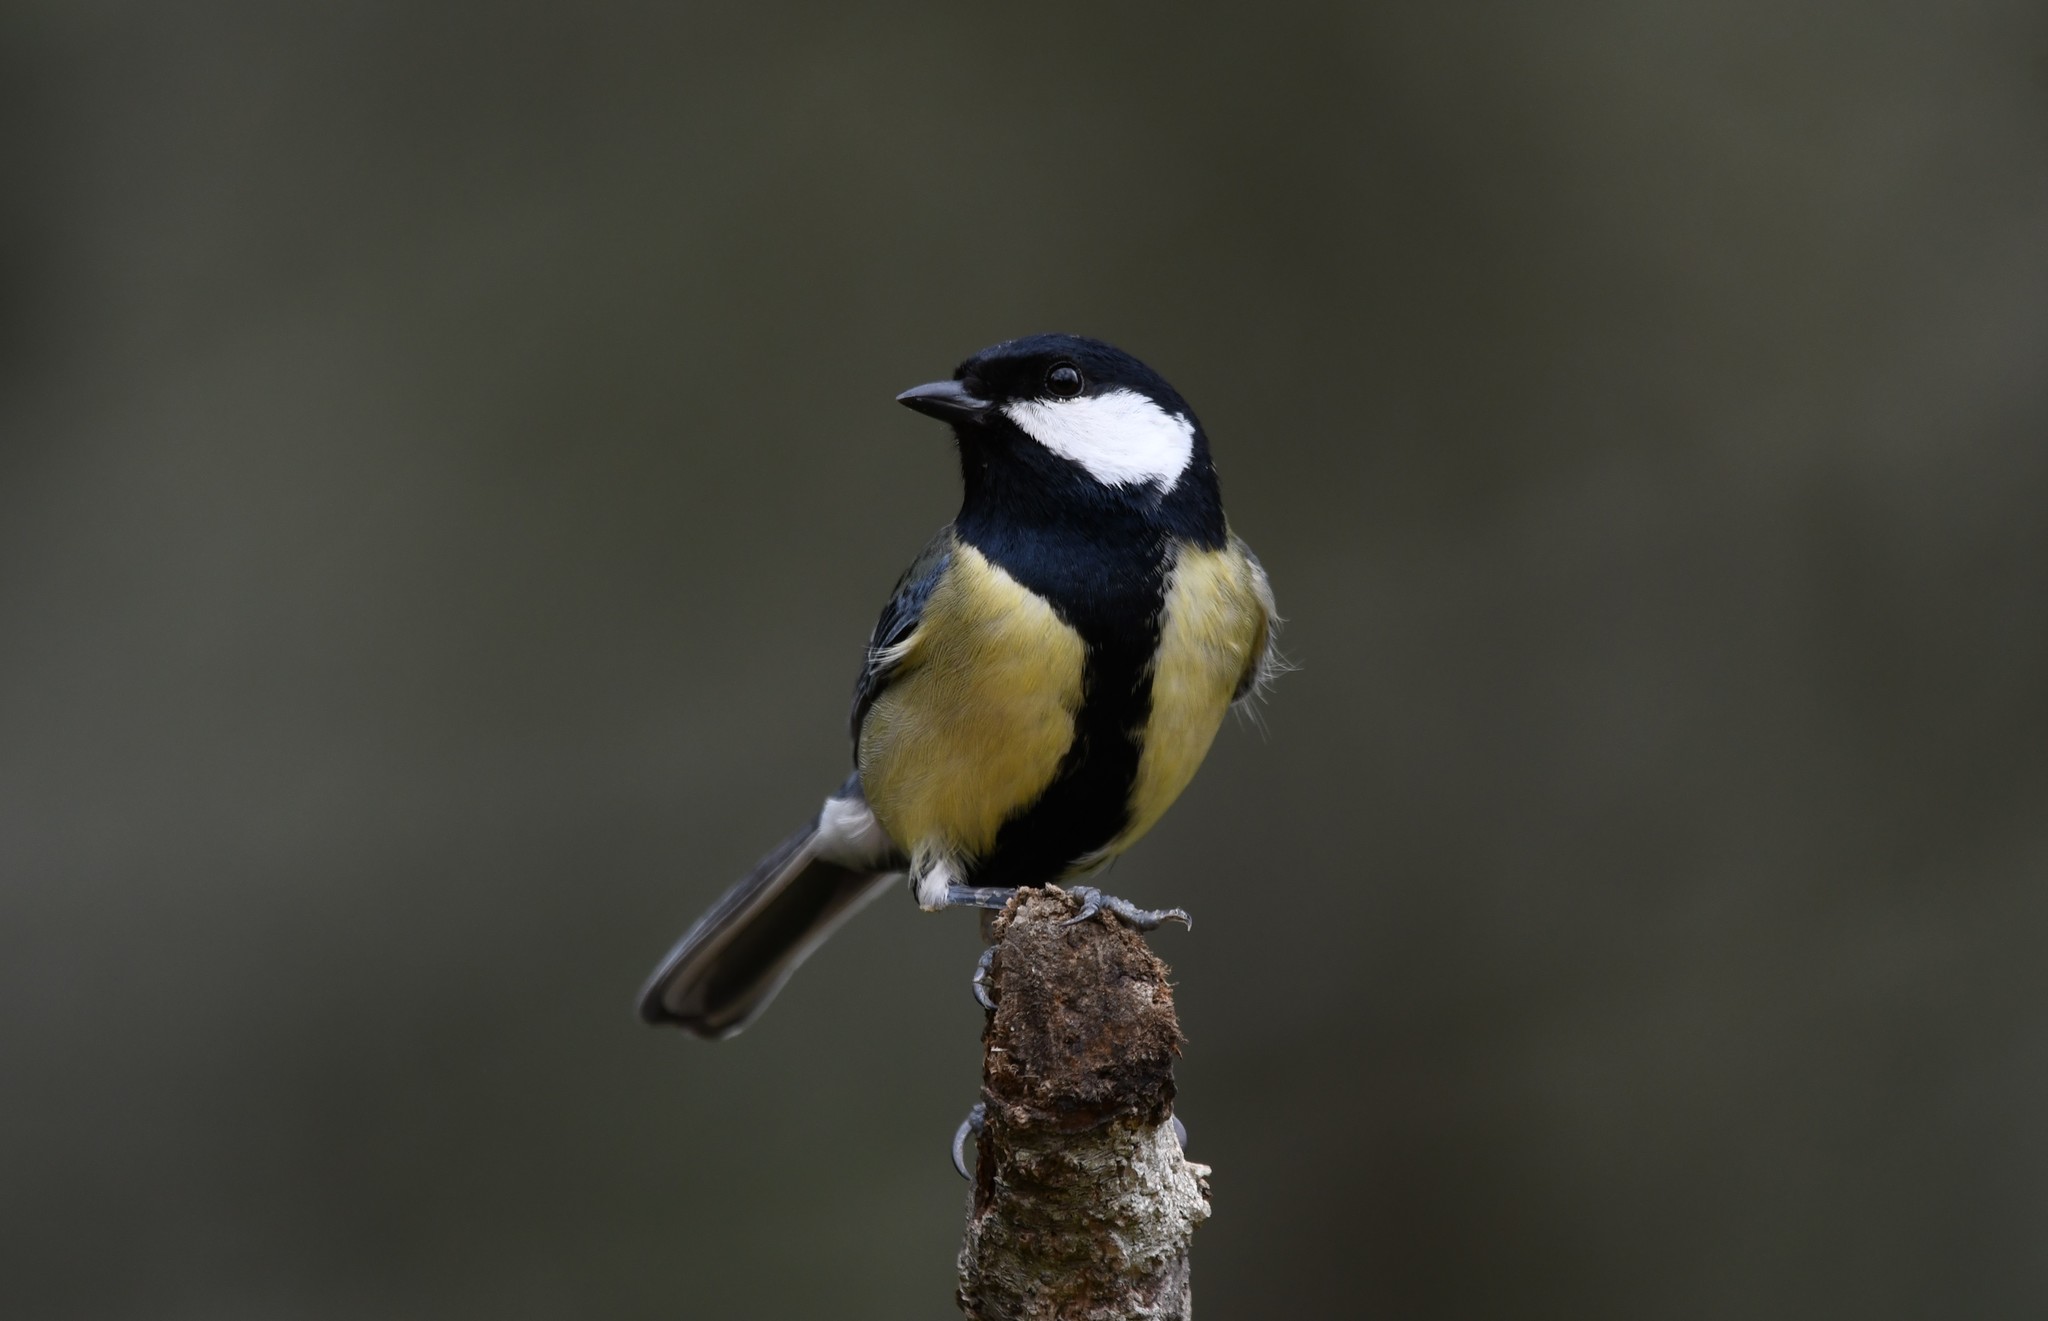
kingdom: Animalia
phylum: Chordata
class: Aves
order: Passeriformes
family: Paridae
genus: Parus
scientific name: Parus major
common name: Great tit
